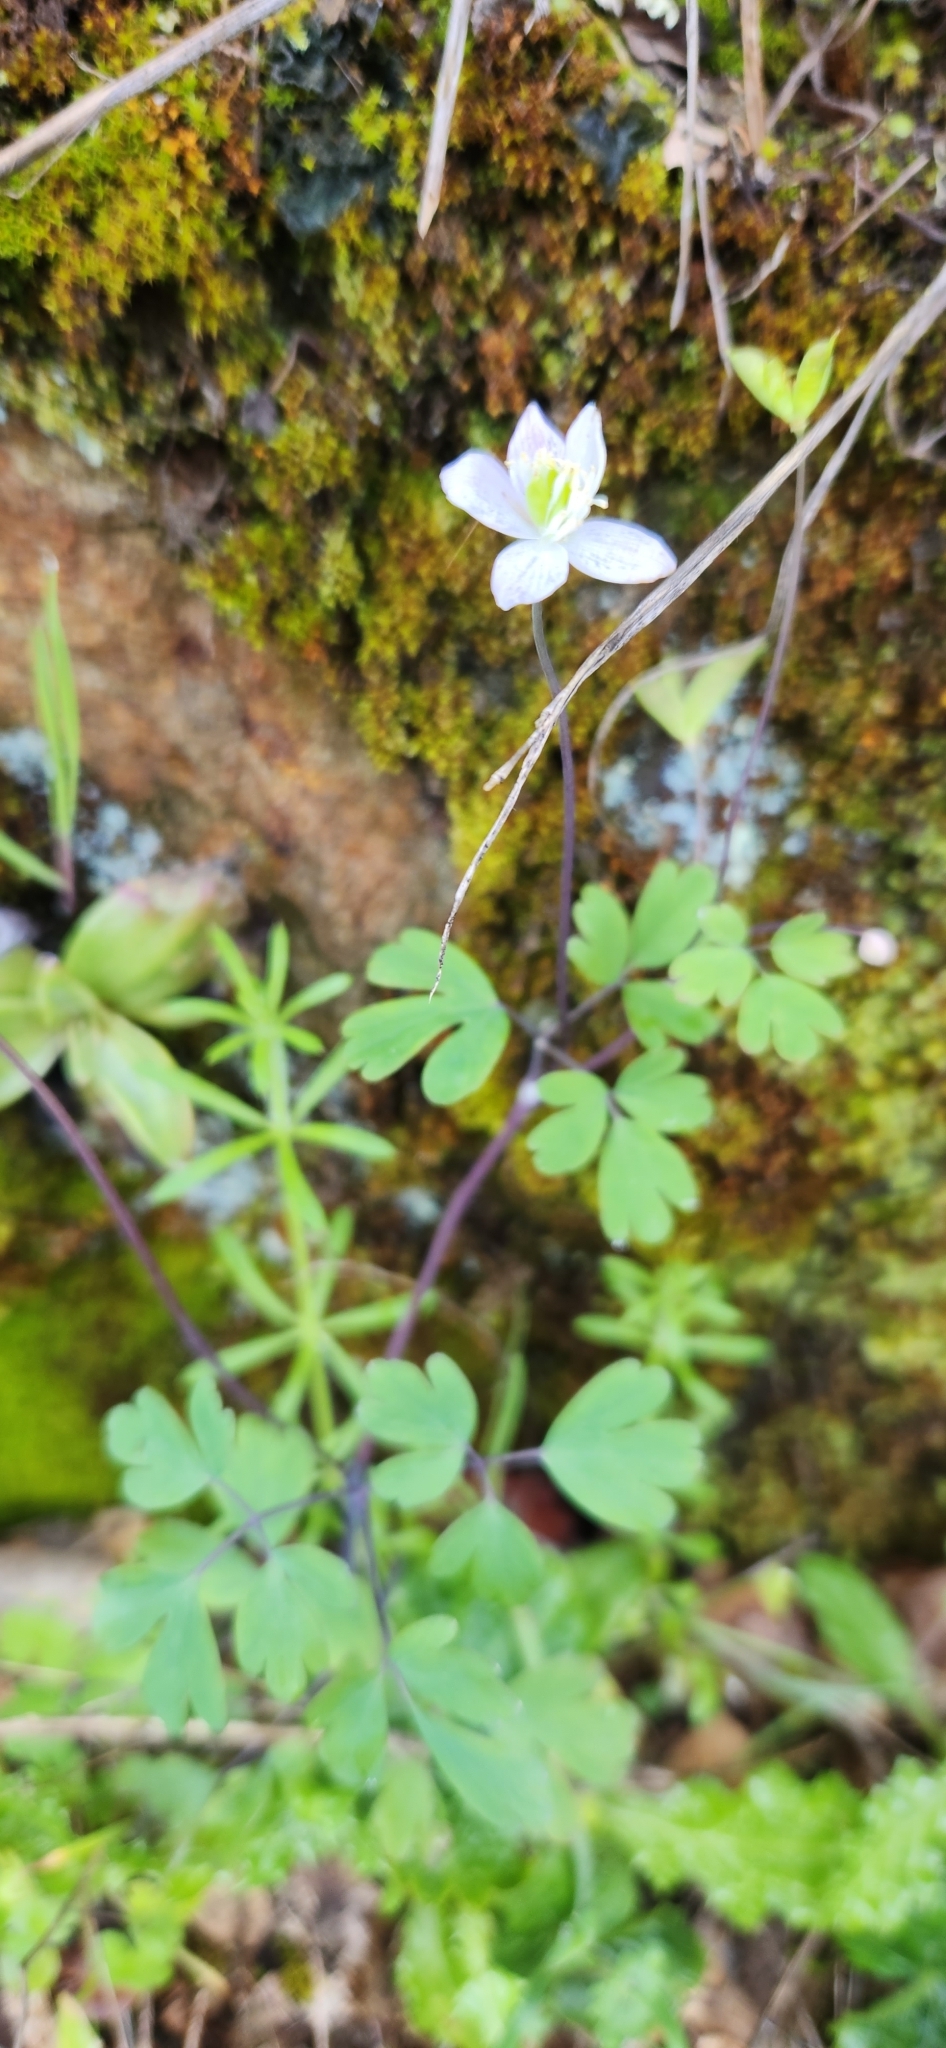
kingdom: Plantae
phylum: Tracheophyta
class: Magnoliopsida
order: Ranunculales
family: Ranunculaceae
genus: Enemion
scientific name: Enemion occidentale
